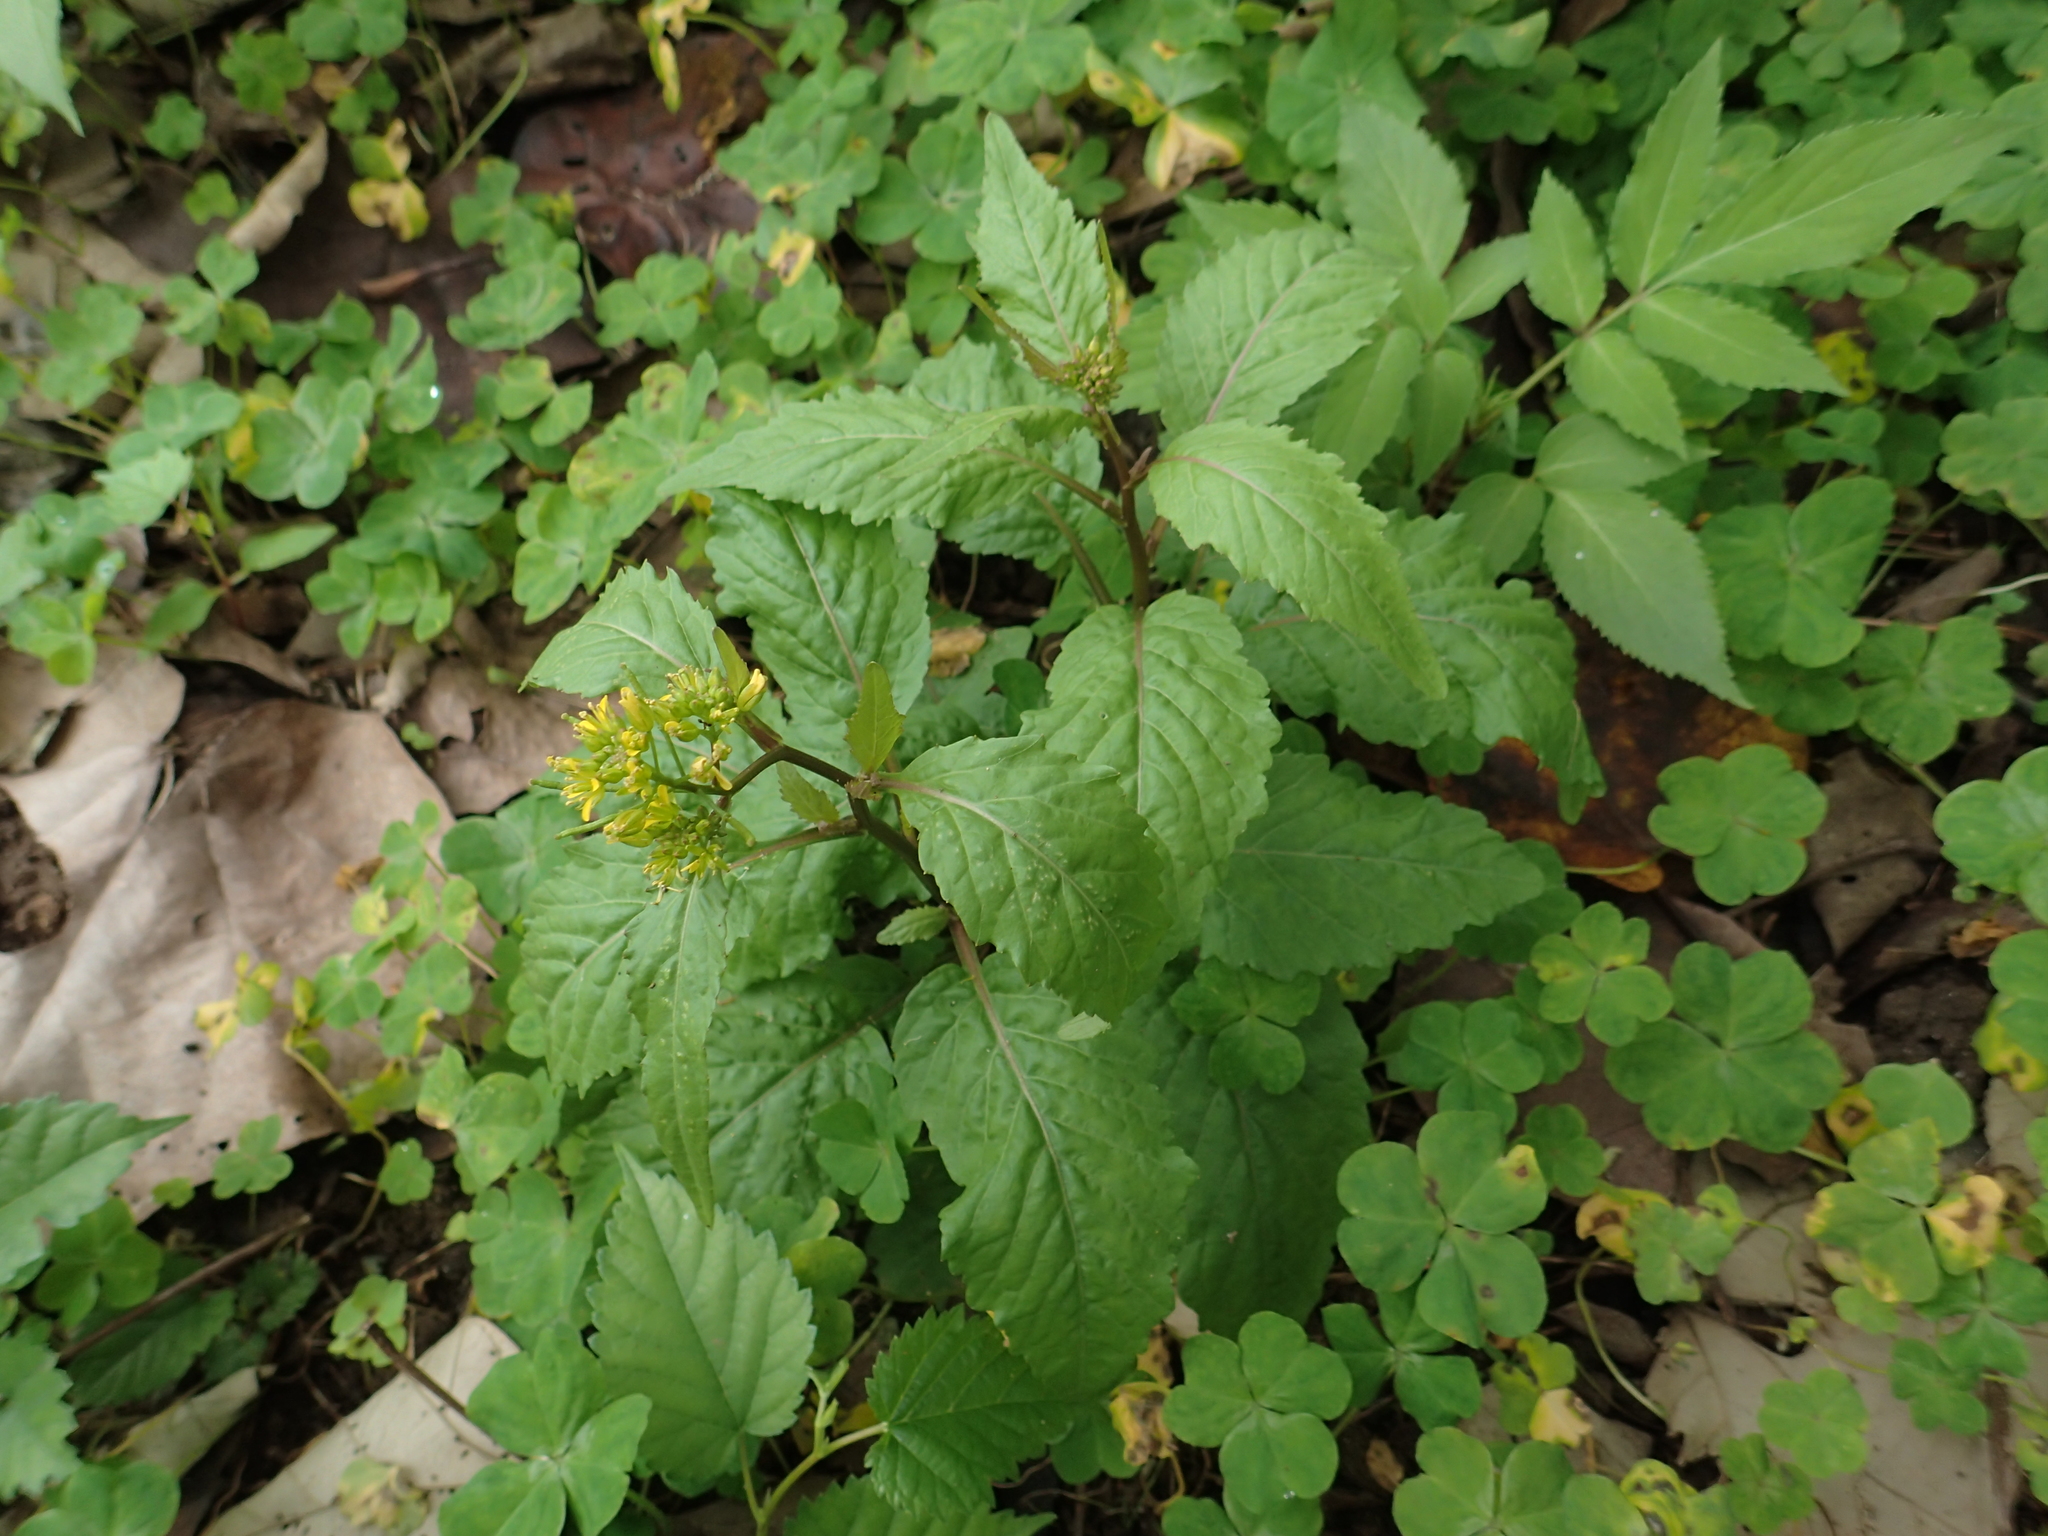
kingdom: Plantae
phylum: Tracheophyta
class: Magnoliopsida
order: Brassicales
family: Brassicaceae
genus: Rorippa
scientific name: Rorippa indica
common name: Variableleaf yellowcress
